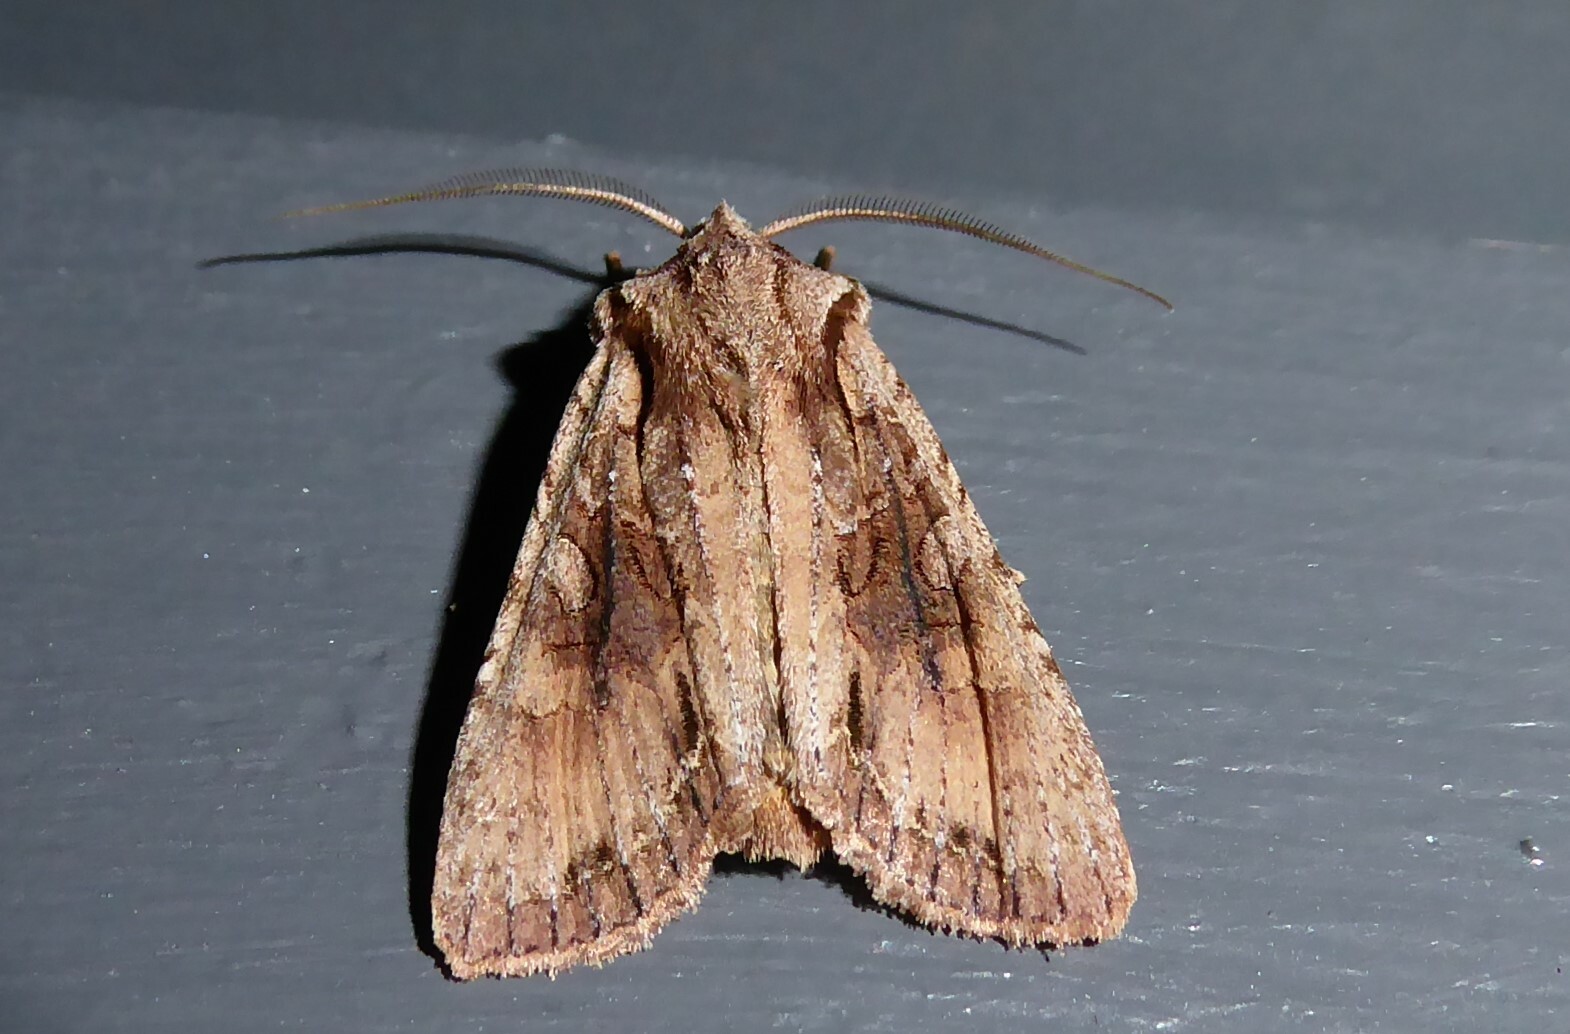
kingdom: Animalia
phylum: Arthropoda
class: Insecta
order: Lepidoptera
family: Noctuidae
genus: Ichneutica
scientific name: Ichneutica
